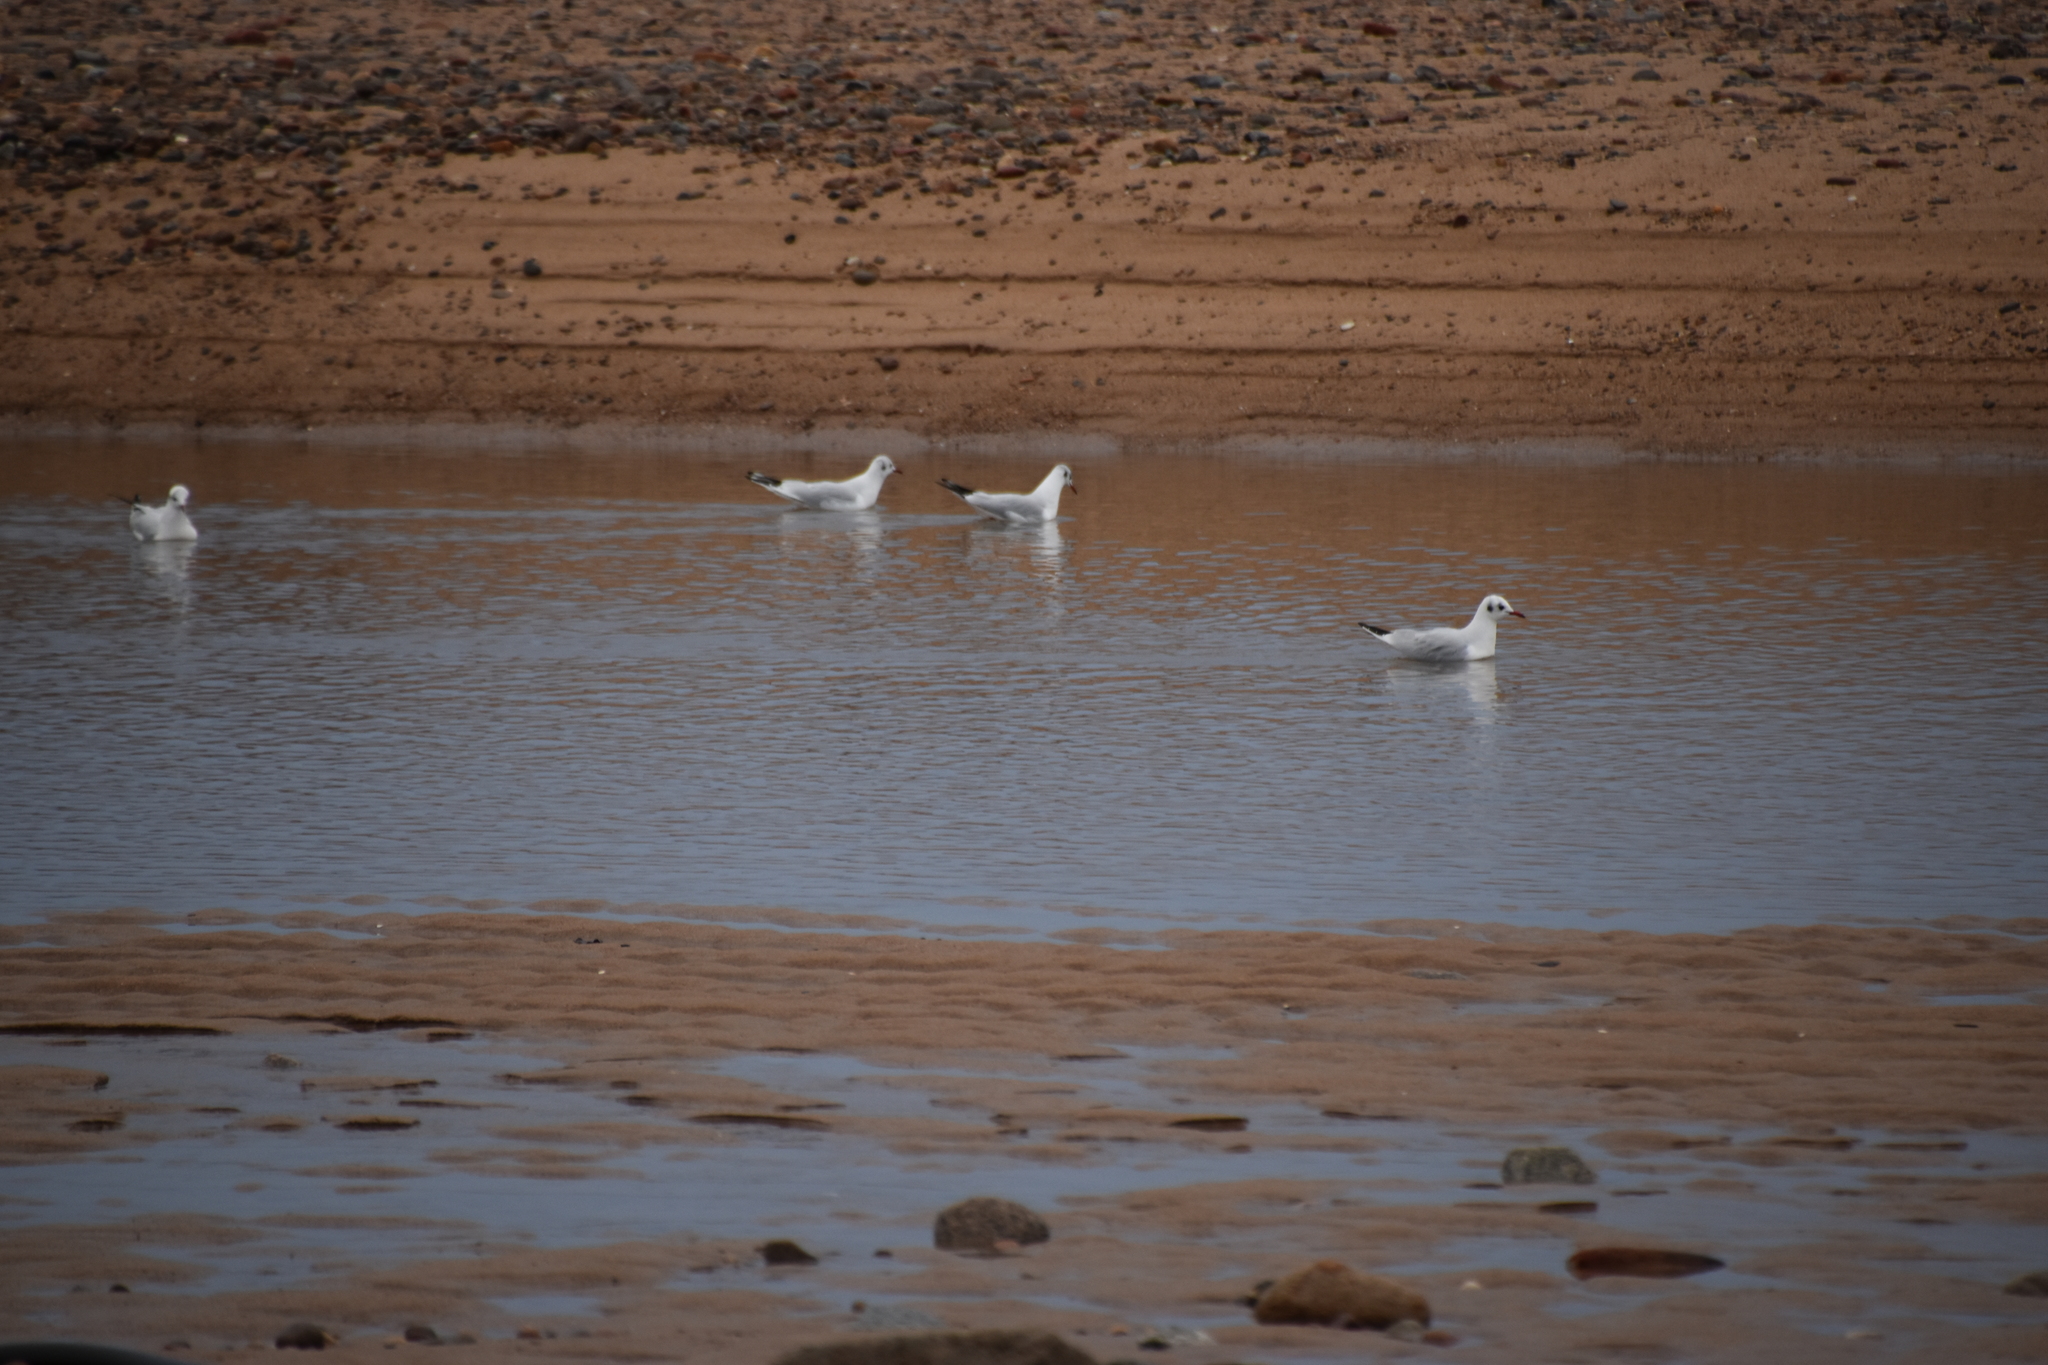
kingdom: Animalia
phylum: Chordata
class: Aves
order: Charadriiformes
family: Laridae
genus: Chroicocephalus
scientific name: Chroicocephalus ridibundus
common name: Black-headed gull
